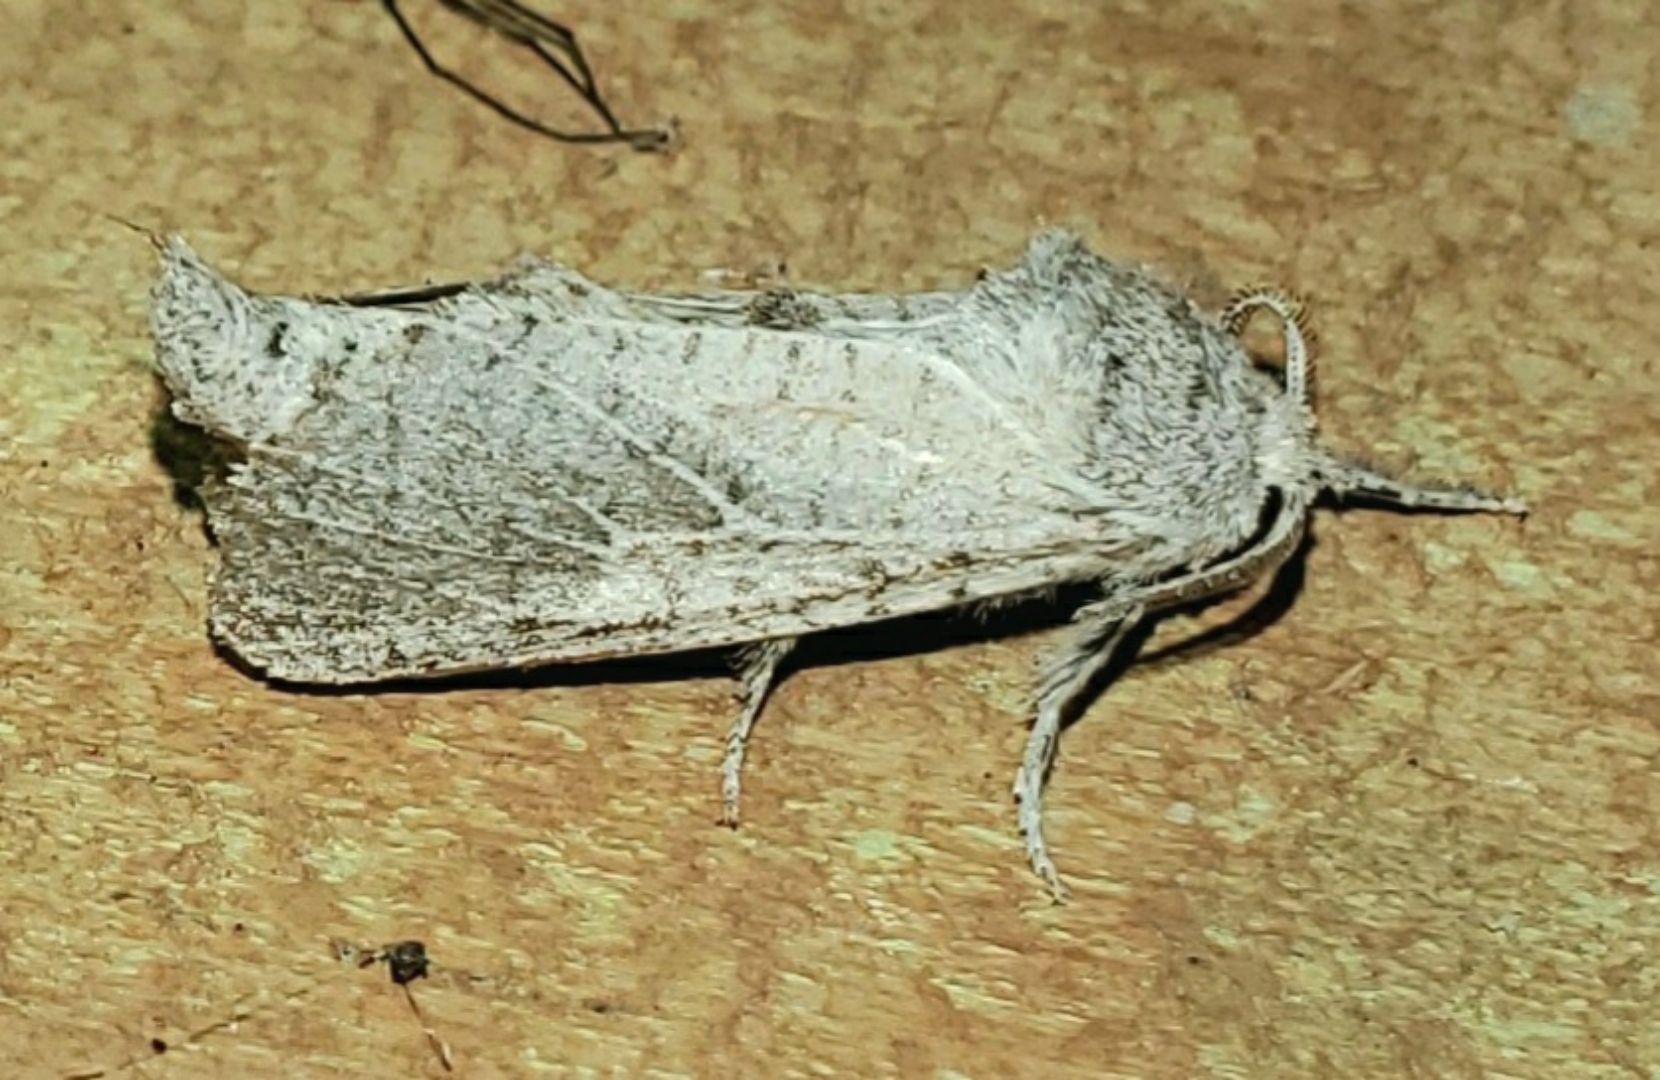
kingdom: Animalia
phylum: Arthropoda
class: Insecta
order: Lepidoptera
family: Cossidae
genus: Givira
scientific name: Givira anna
